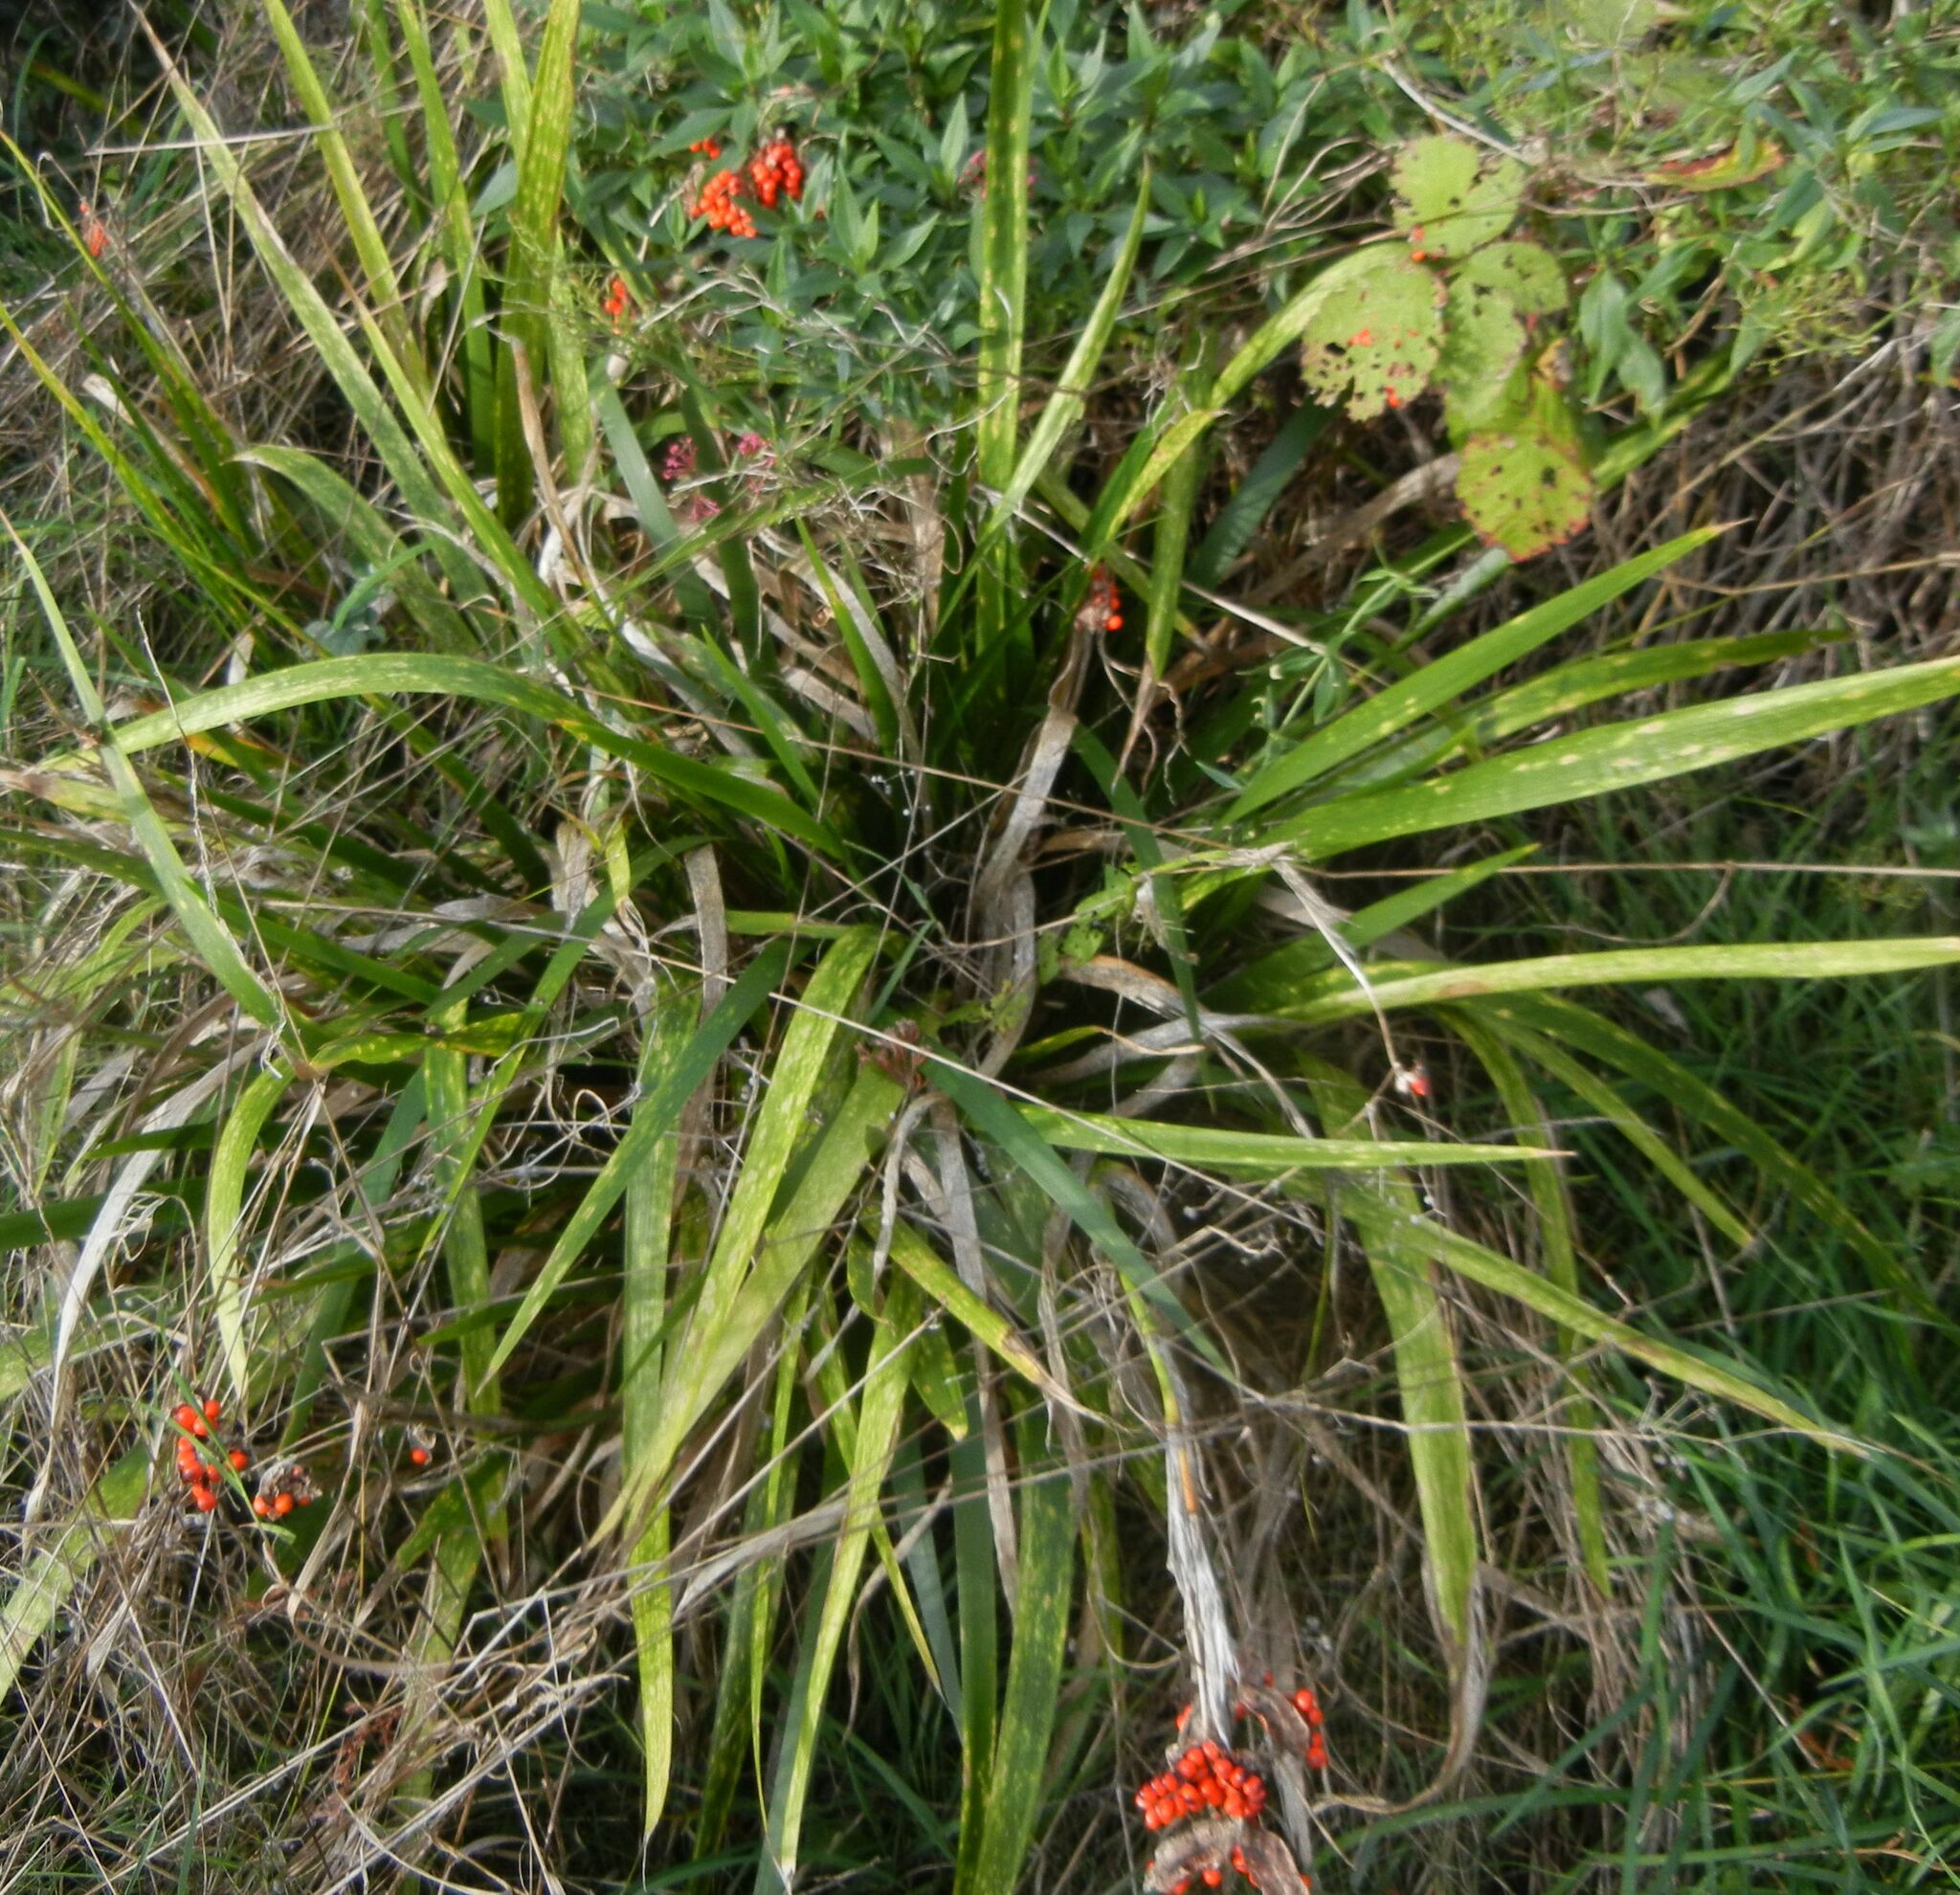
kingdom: Plantae
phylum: Tracheophyta
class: Liliopsida
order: Asparagales
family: Iridaceae
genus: Iris
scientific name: Iris foetidissima
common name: Stinking iris
